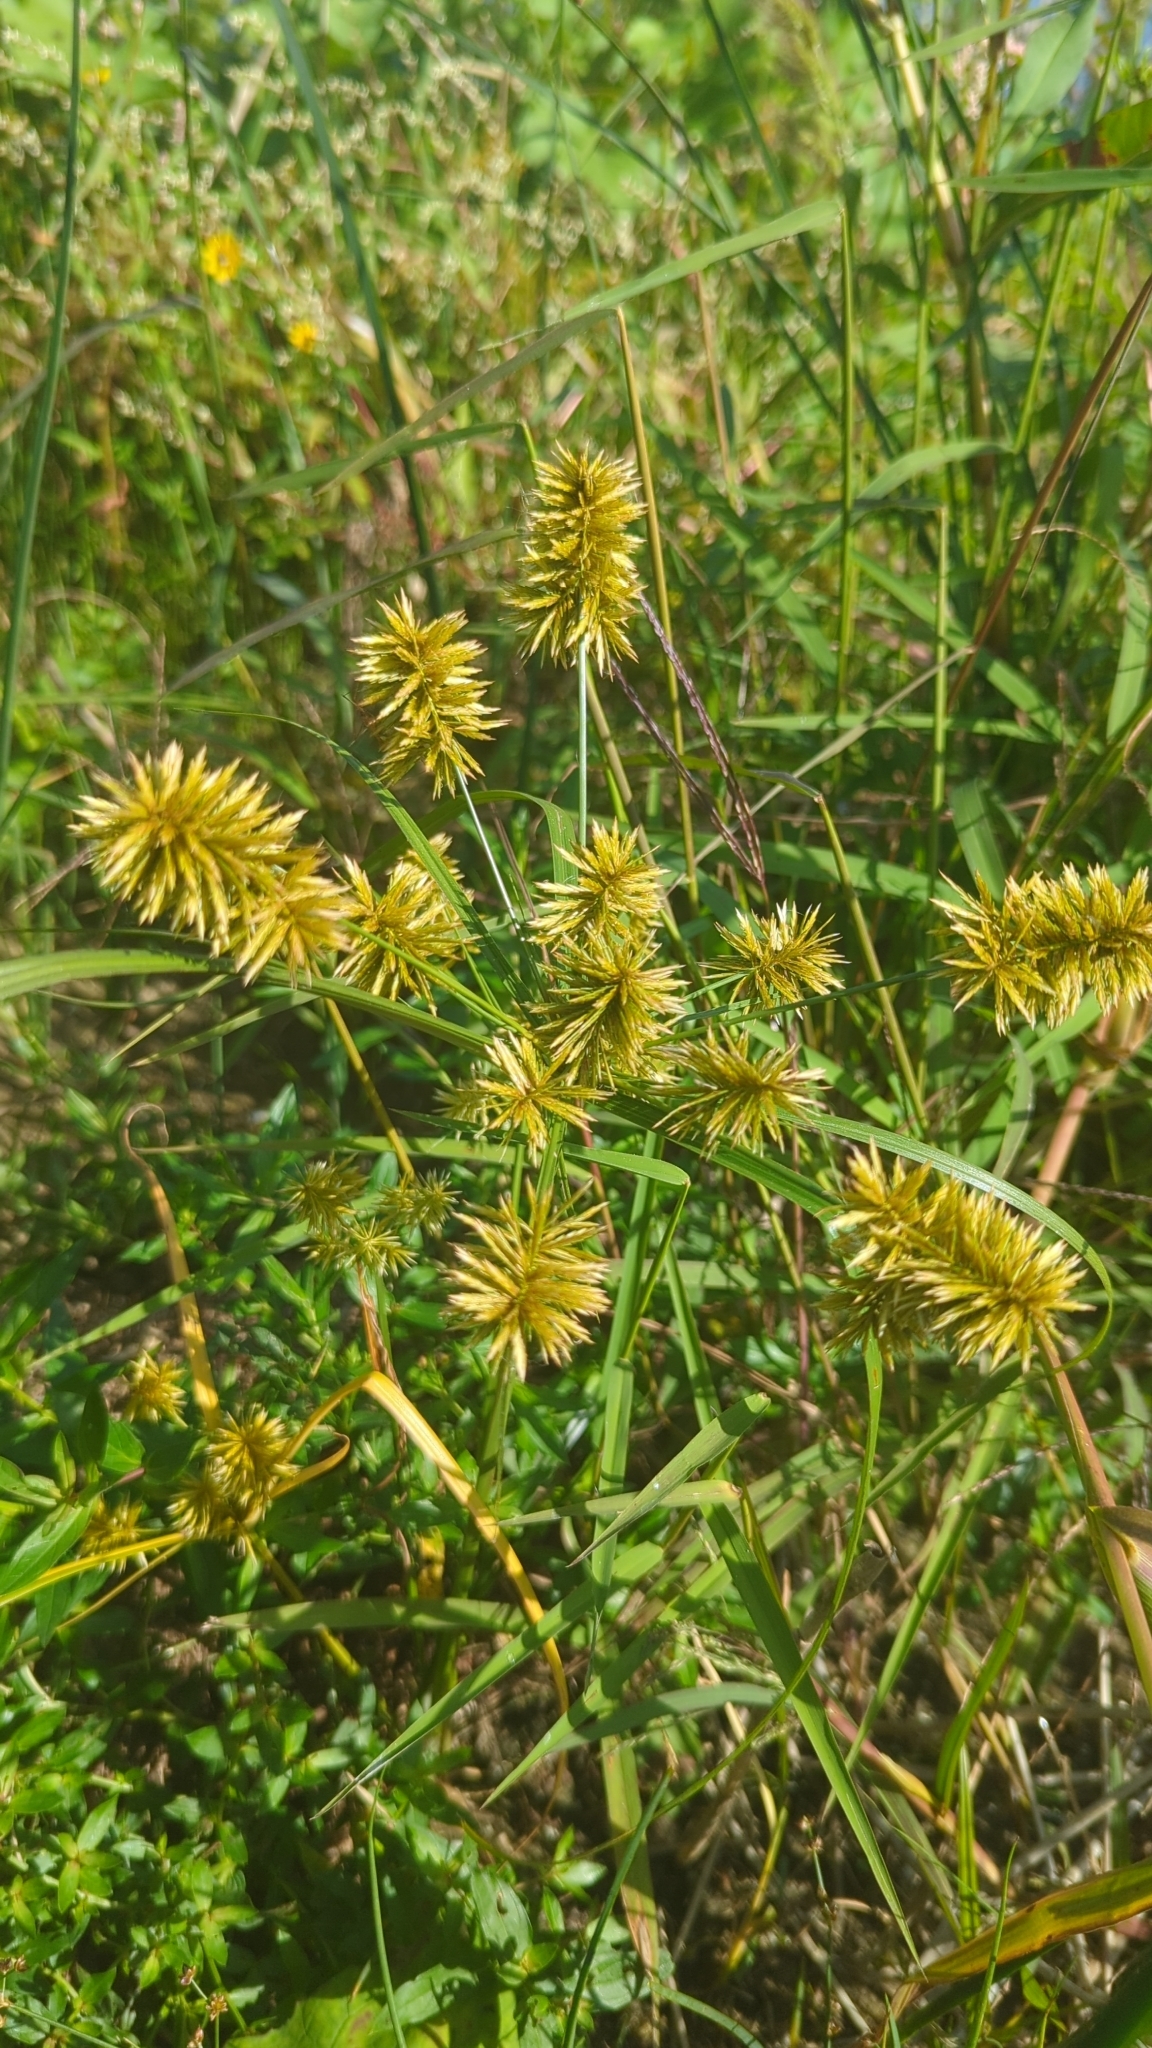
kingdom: Plantae
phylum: Tracheophyta
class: Liliopsida
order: Poales
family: Cyperaceae
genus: Cyperus
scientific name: Cyperus strigosus
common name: False nutsedge
